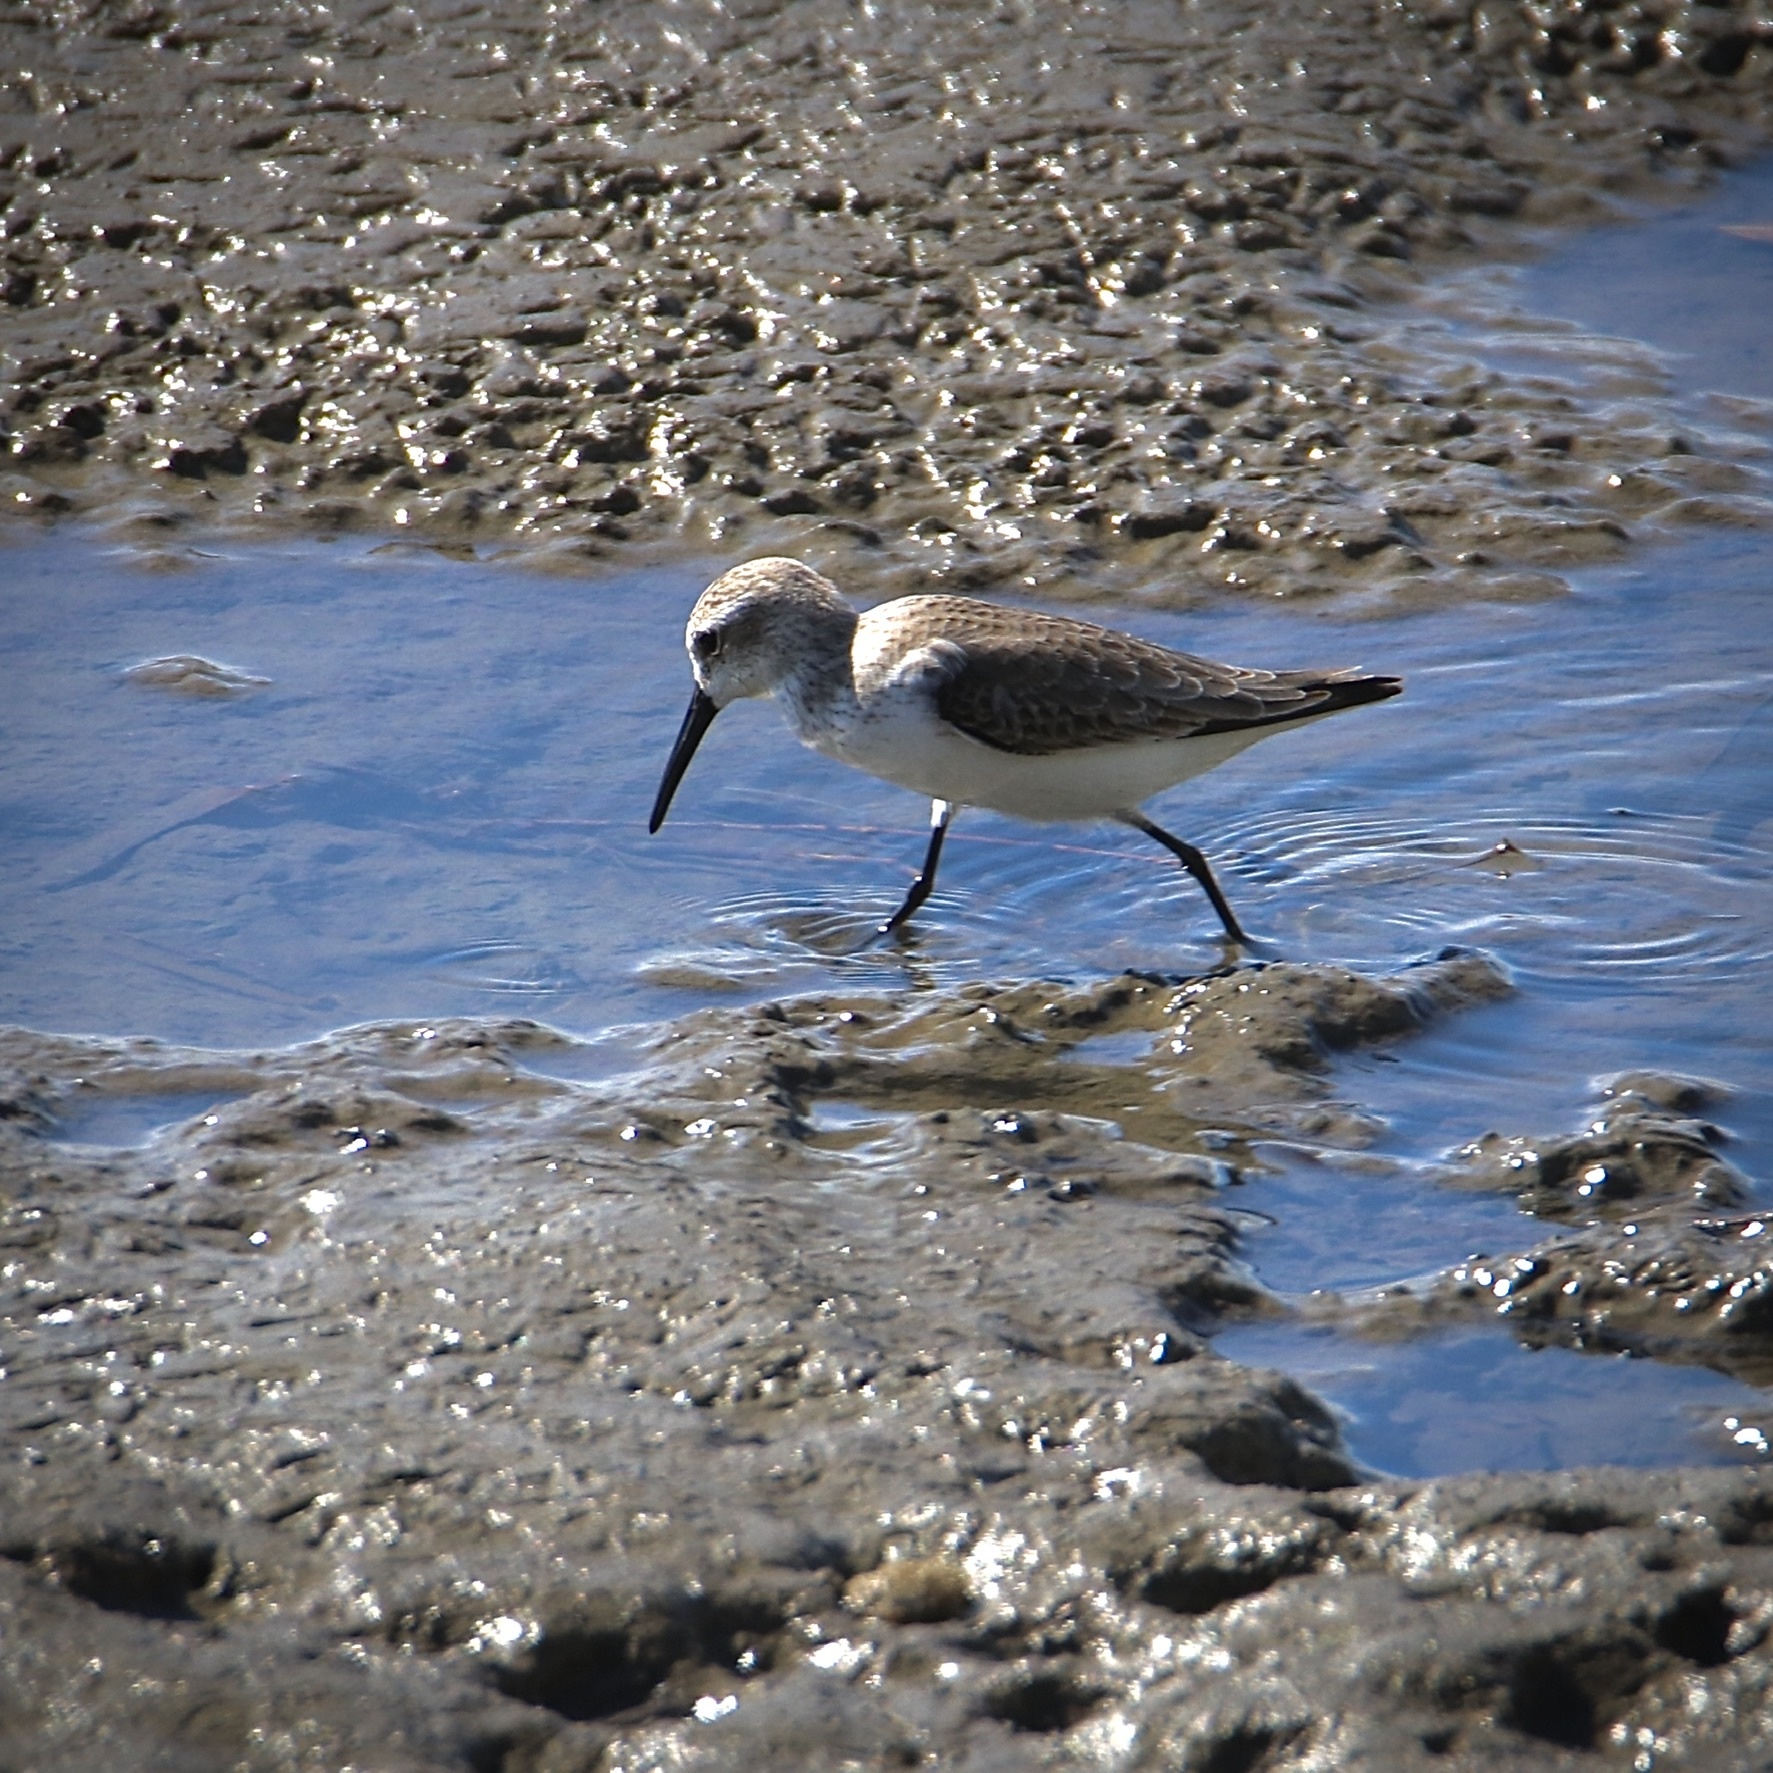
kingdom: Animalia
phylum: Chordata
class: Aves
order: Charadriiformes
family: Scolopacidae
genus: Calidris
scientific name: Calidris mauri
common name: Western sandpiper
